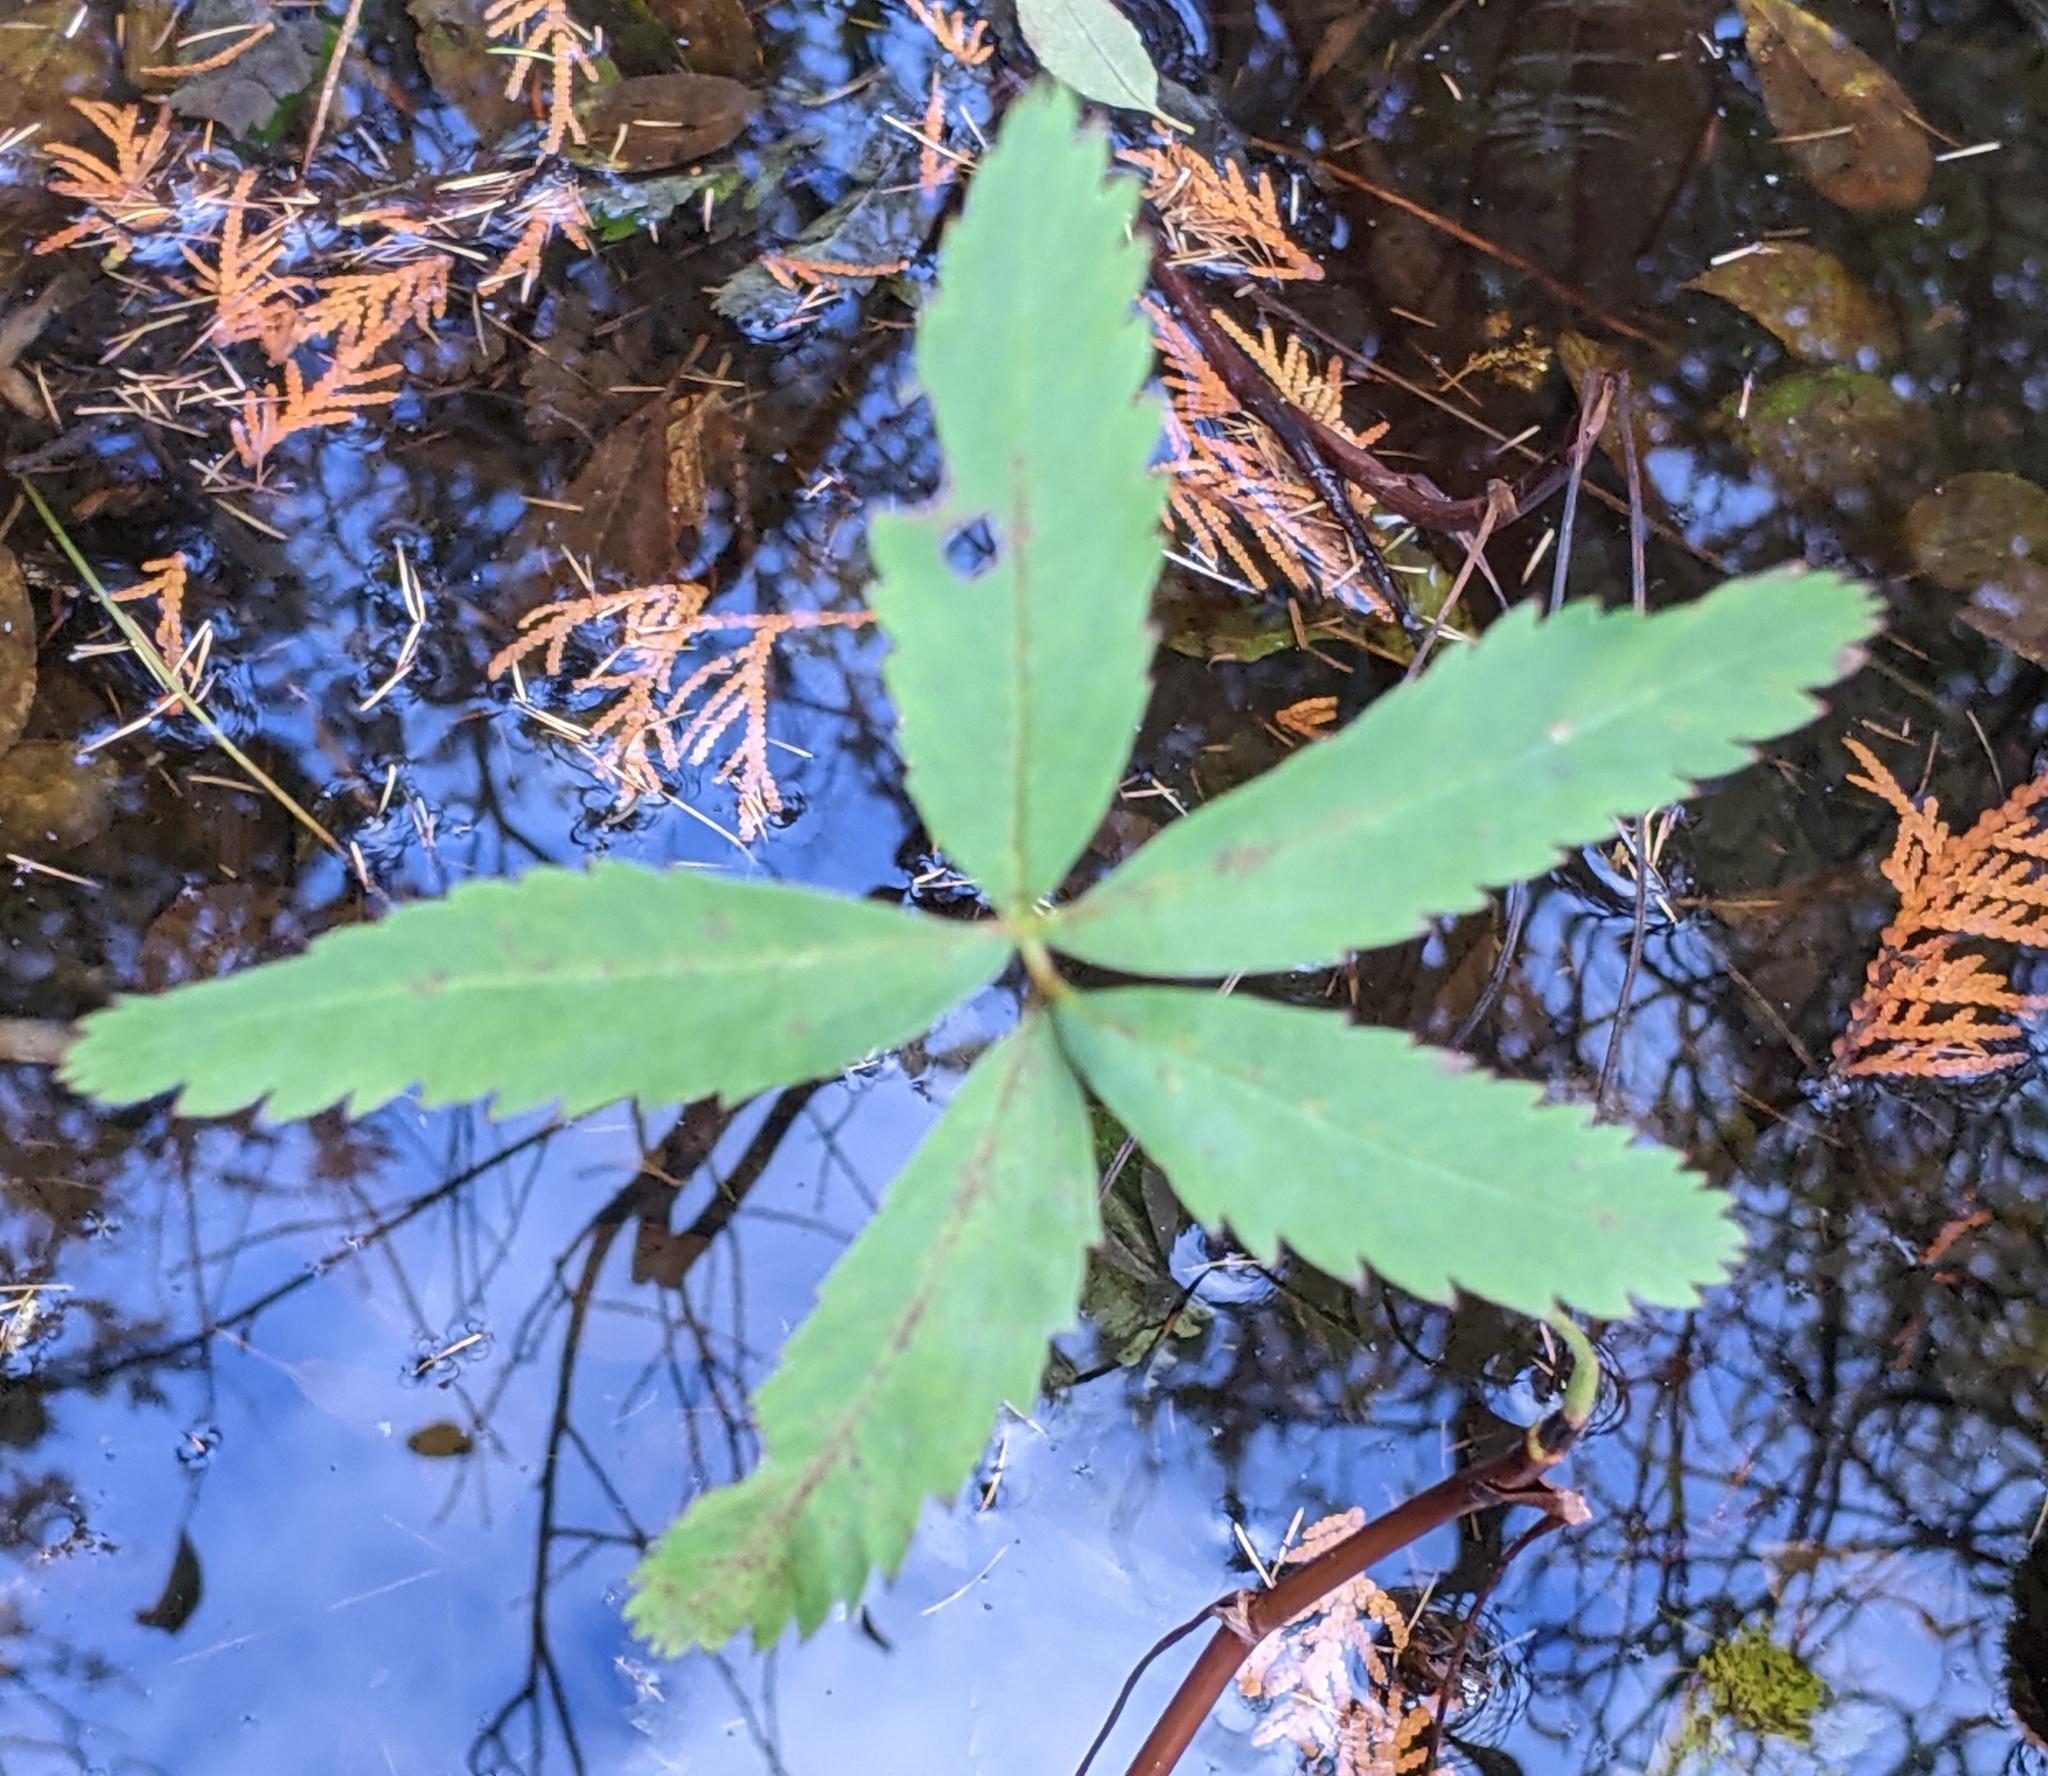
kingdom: Plantae
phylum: Tracheophyta
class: Magnoliopsida
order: Rosales
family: Rosaceae
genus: Comarum
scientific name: Comarum palustre
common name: Marsh cinquefoil
